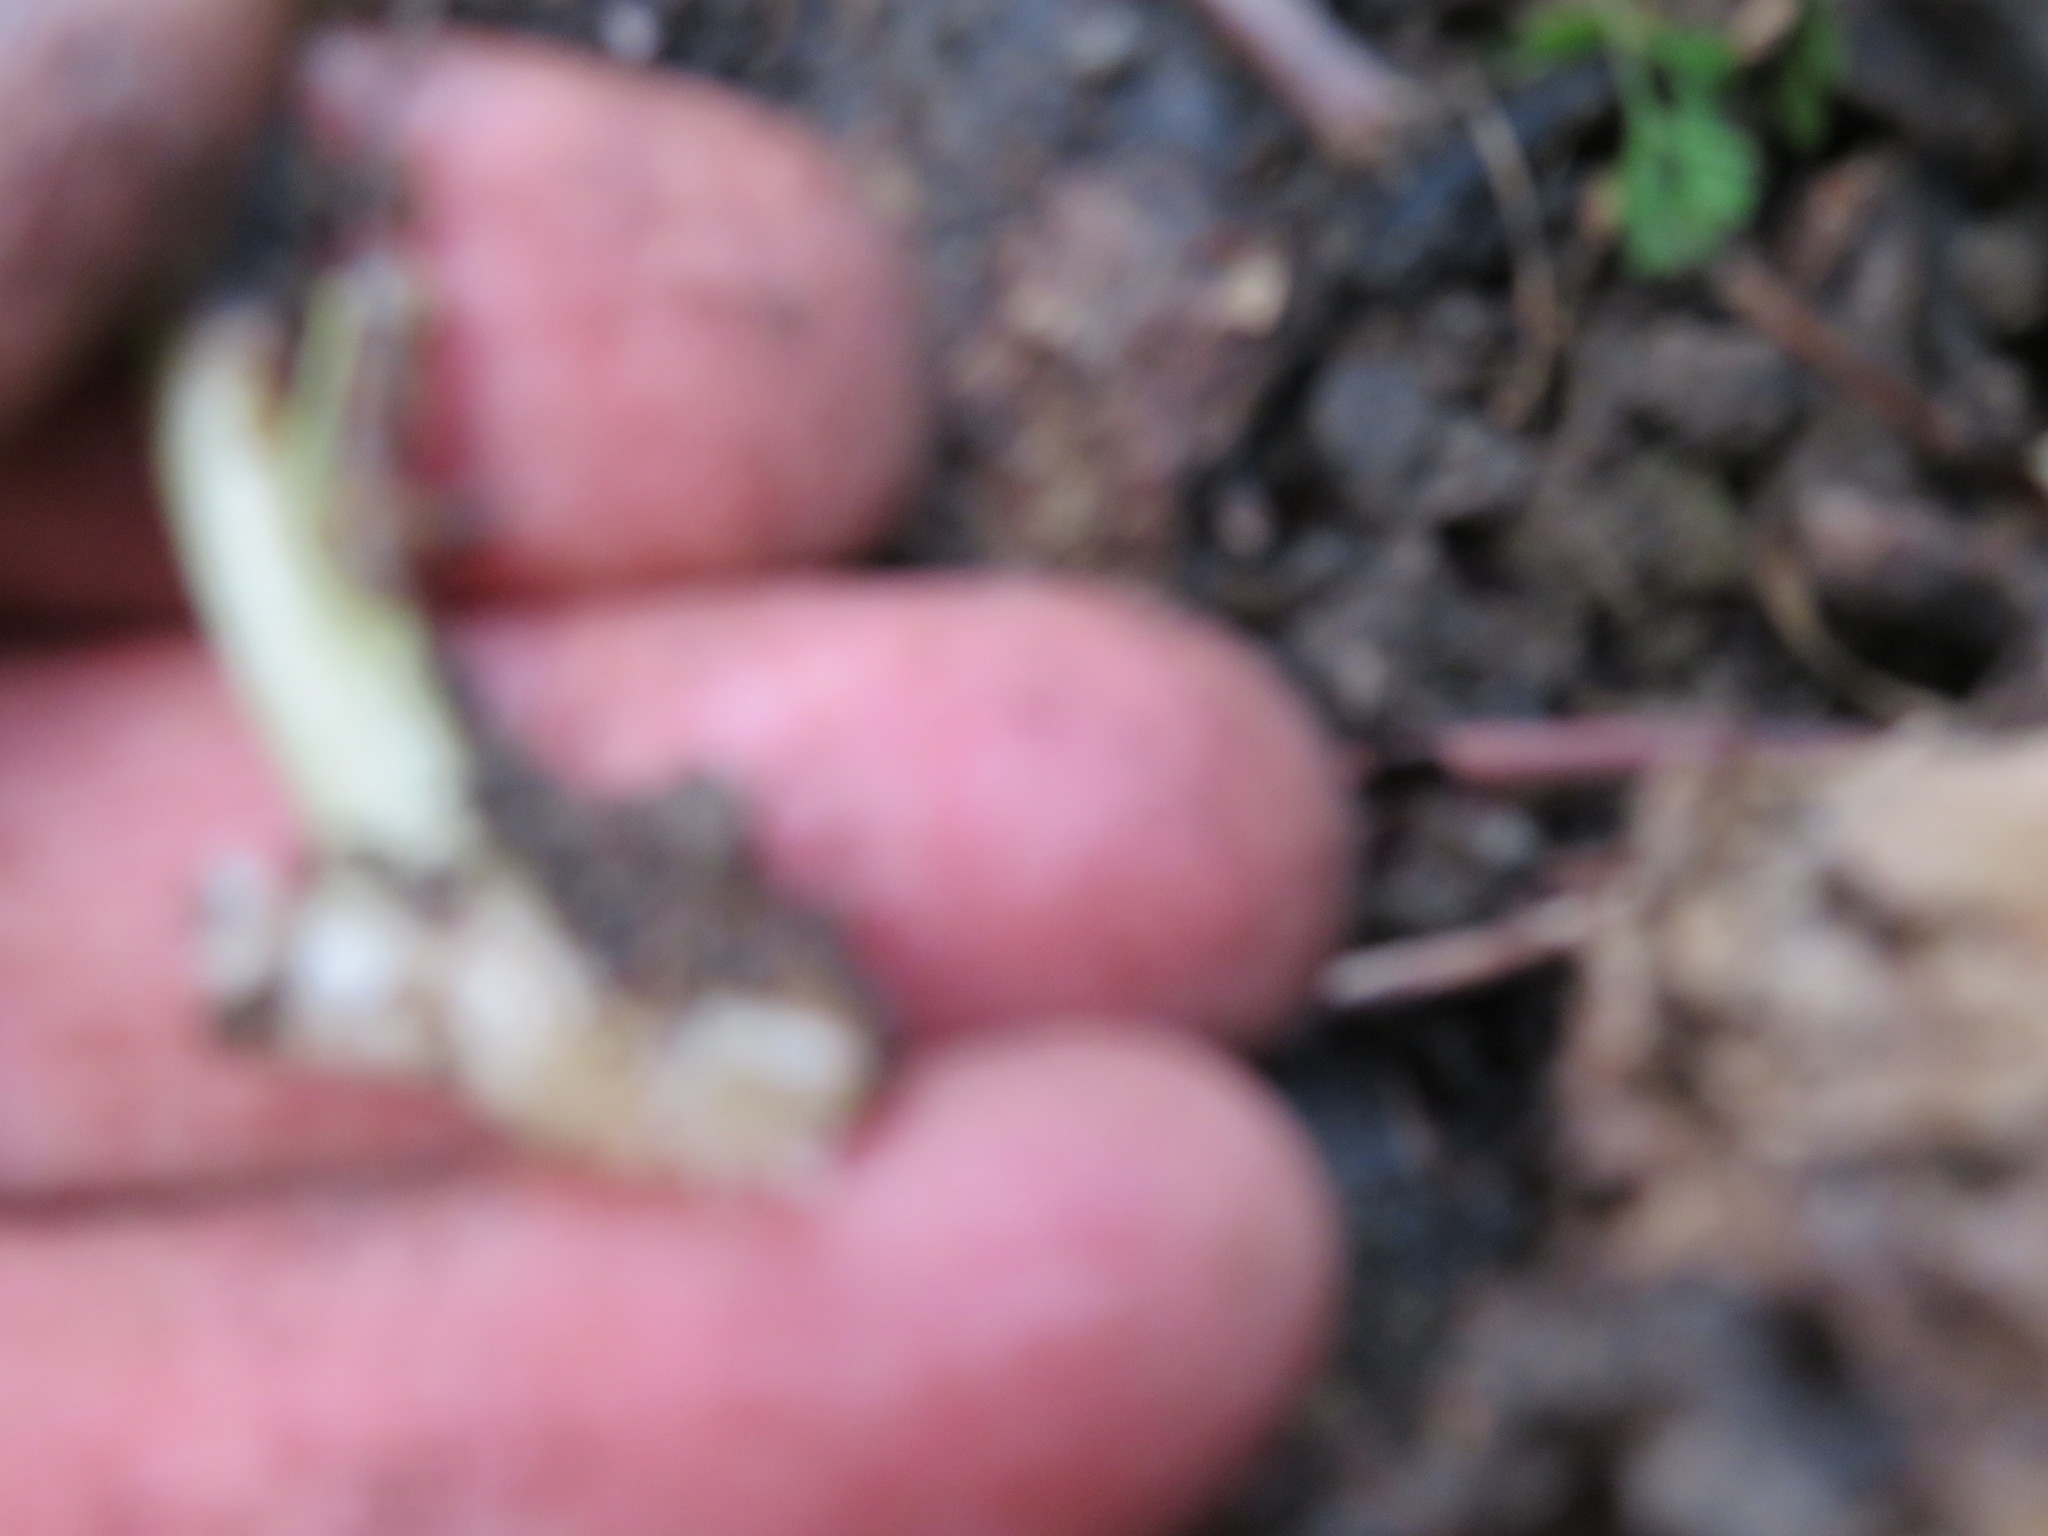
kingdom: Plantae
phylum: Tracheophyta
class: Magnoliopsida
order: Geraniales
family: Melianthaceae
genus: Melianthus
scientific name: Melianthus major
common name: Honey-flower
